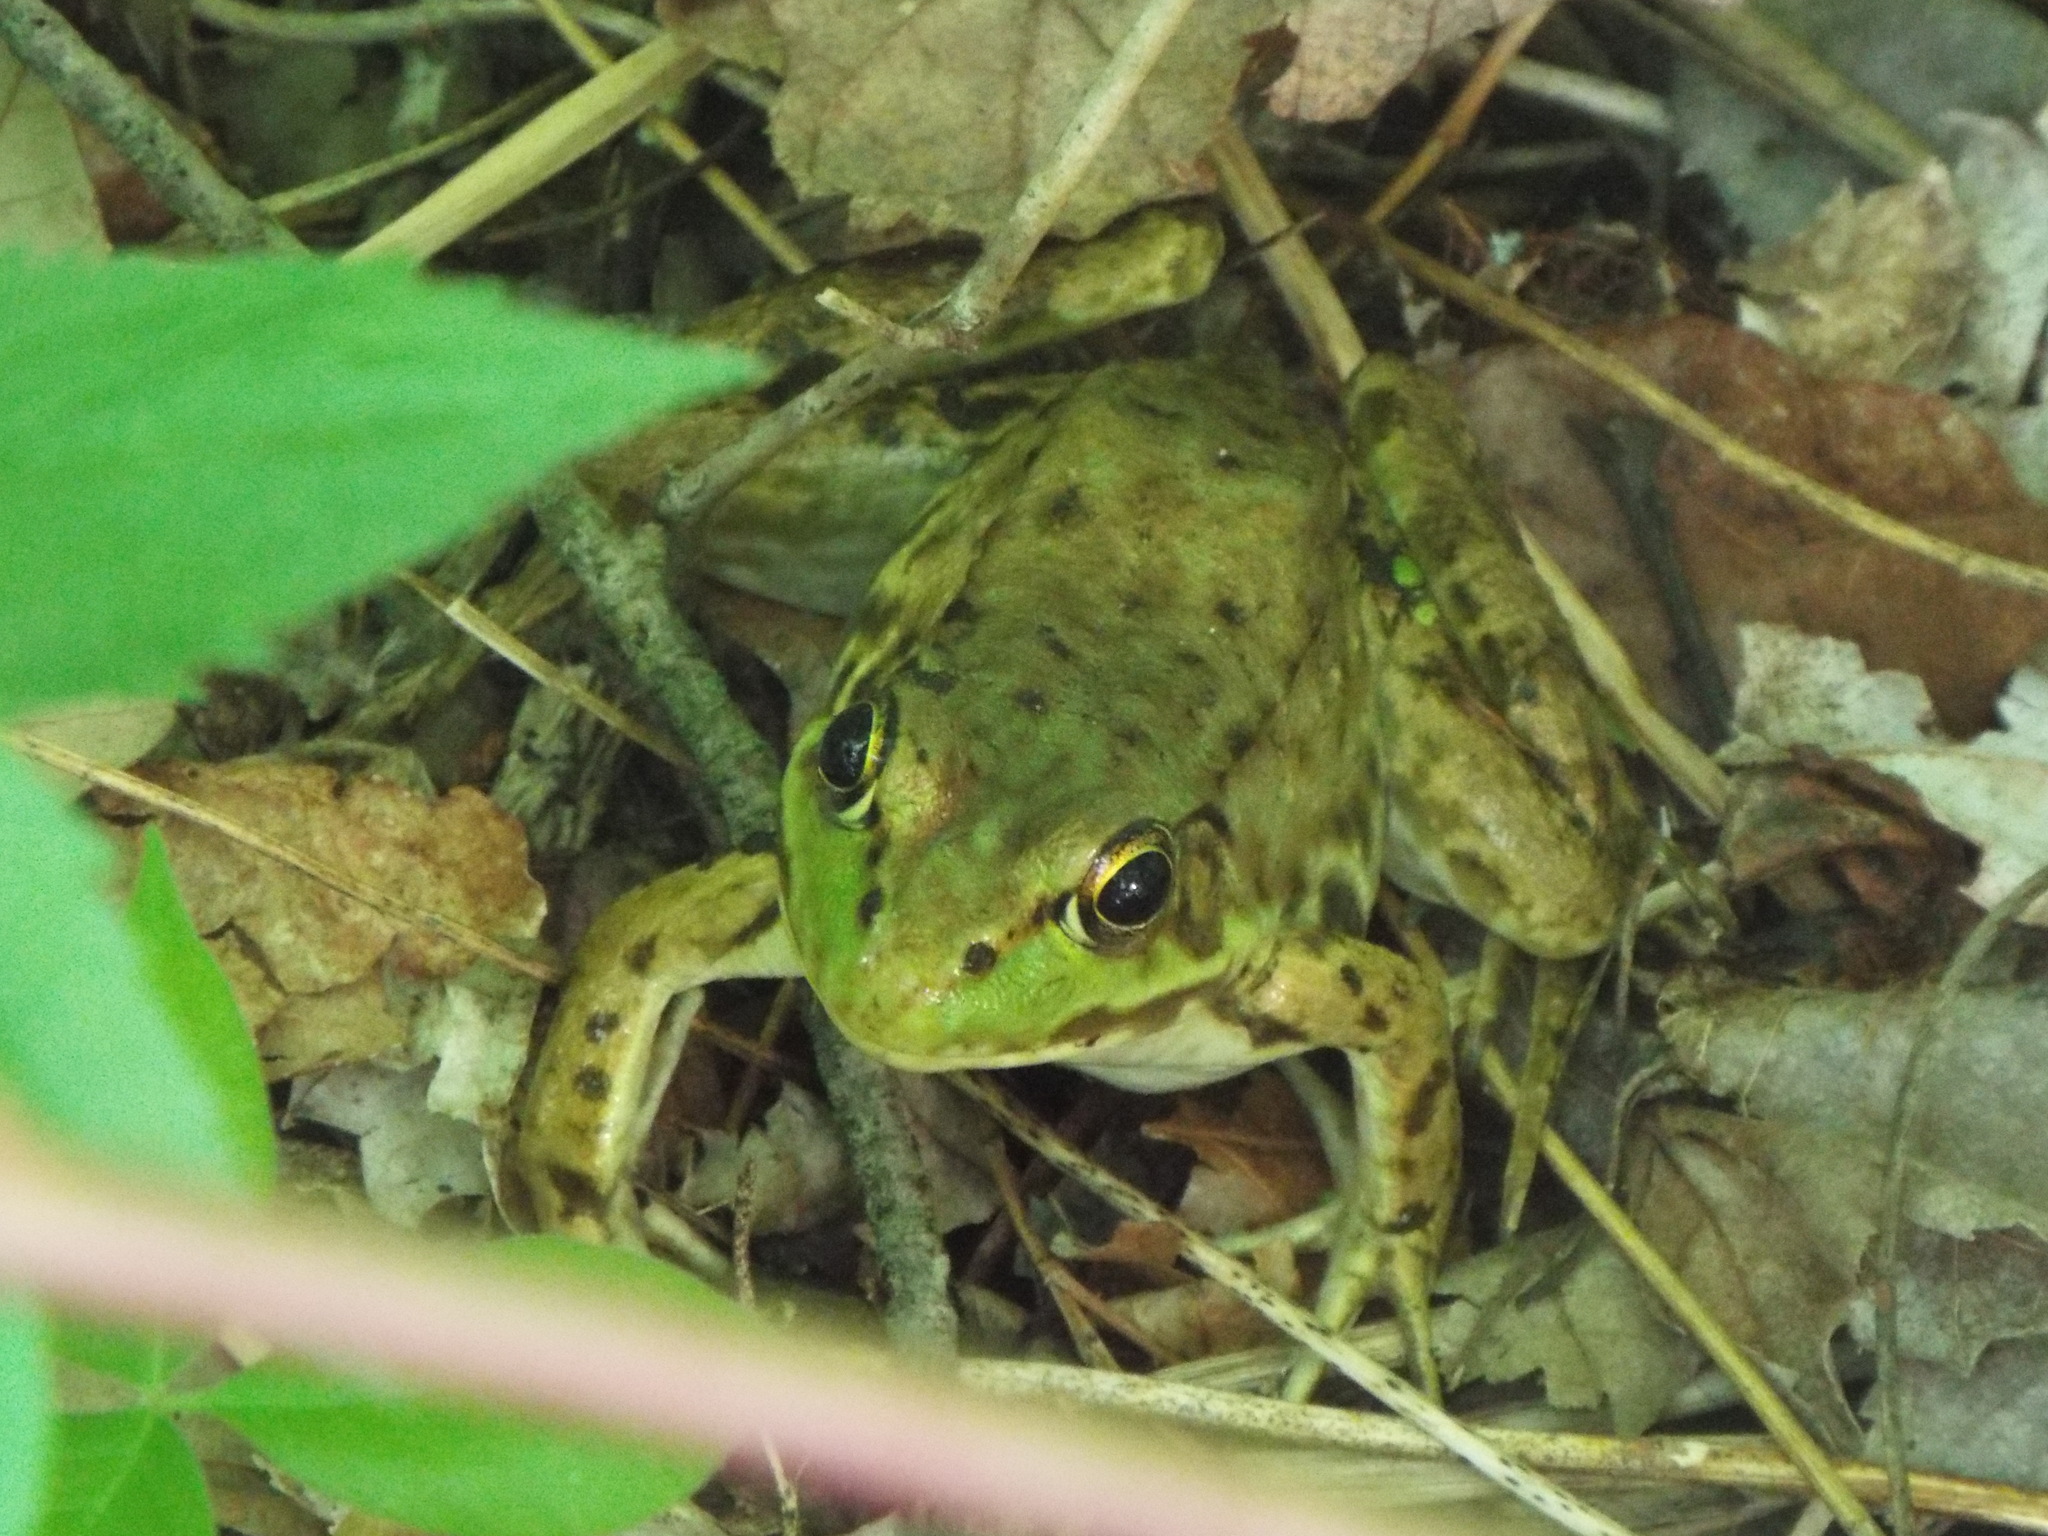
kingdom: Animalia
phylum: Chordata
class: Amphibia
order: Anura
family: Ranidae
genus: Lithobates
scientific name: Lithobates clamitans
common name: Green frog
